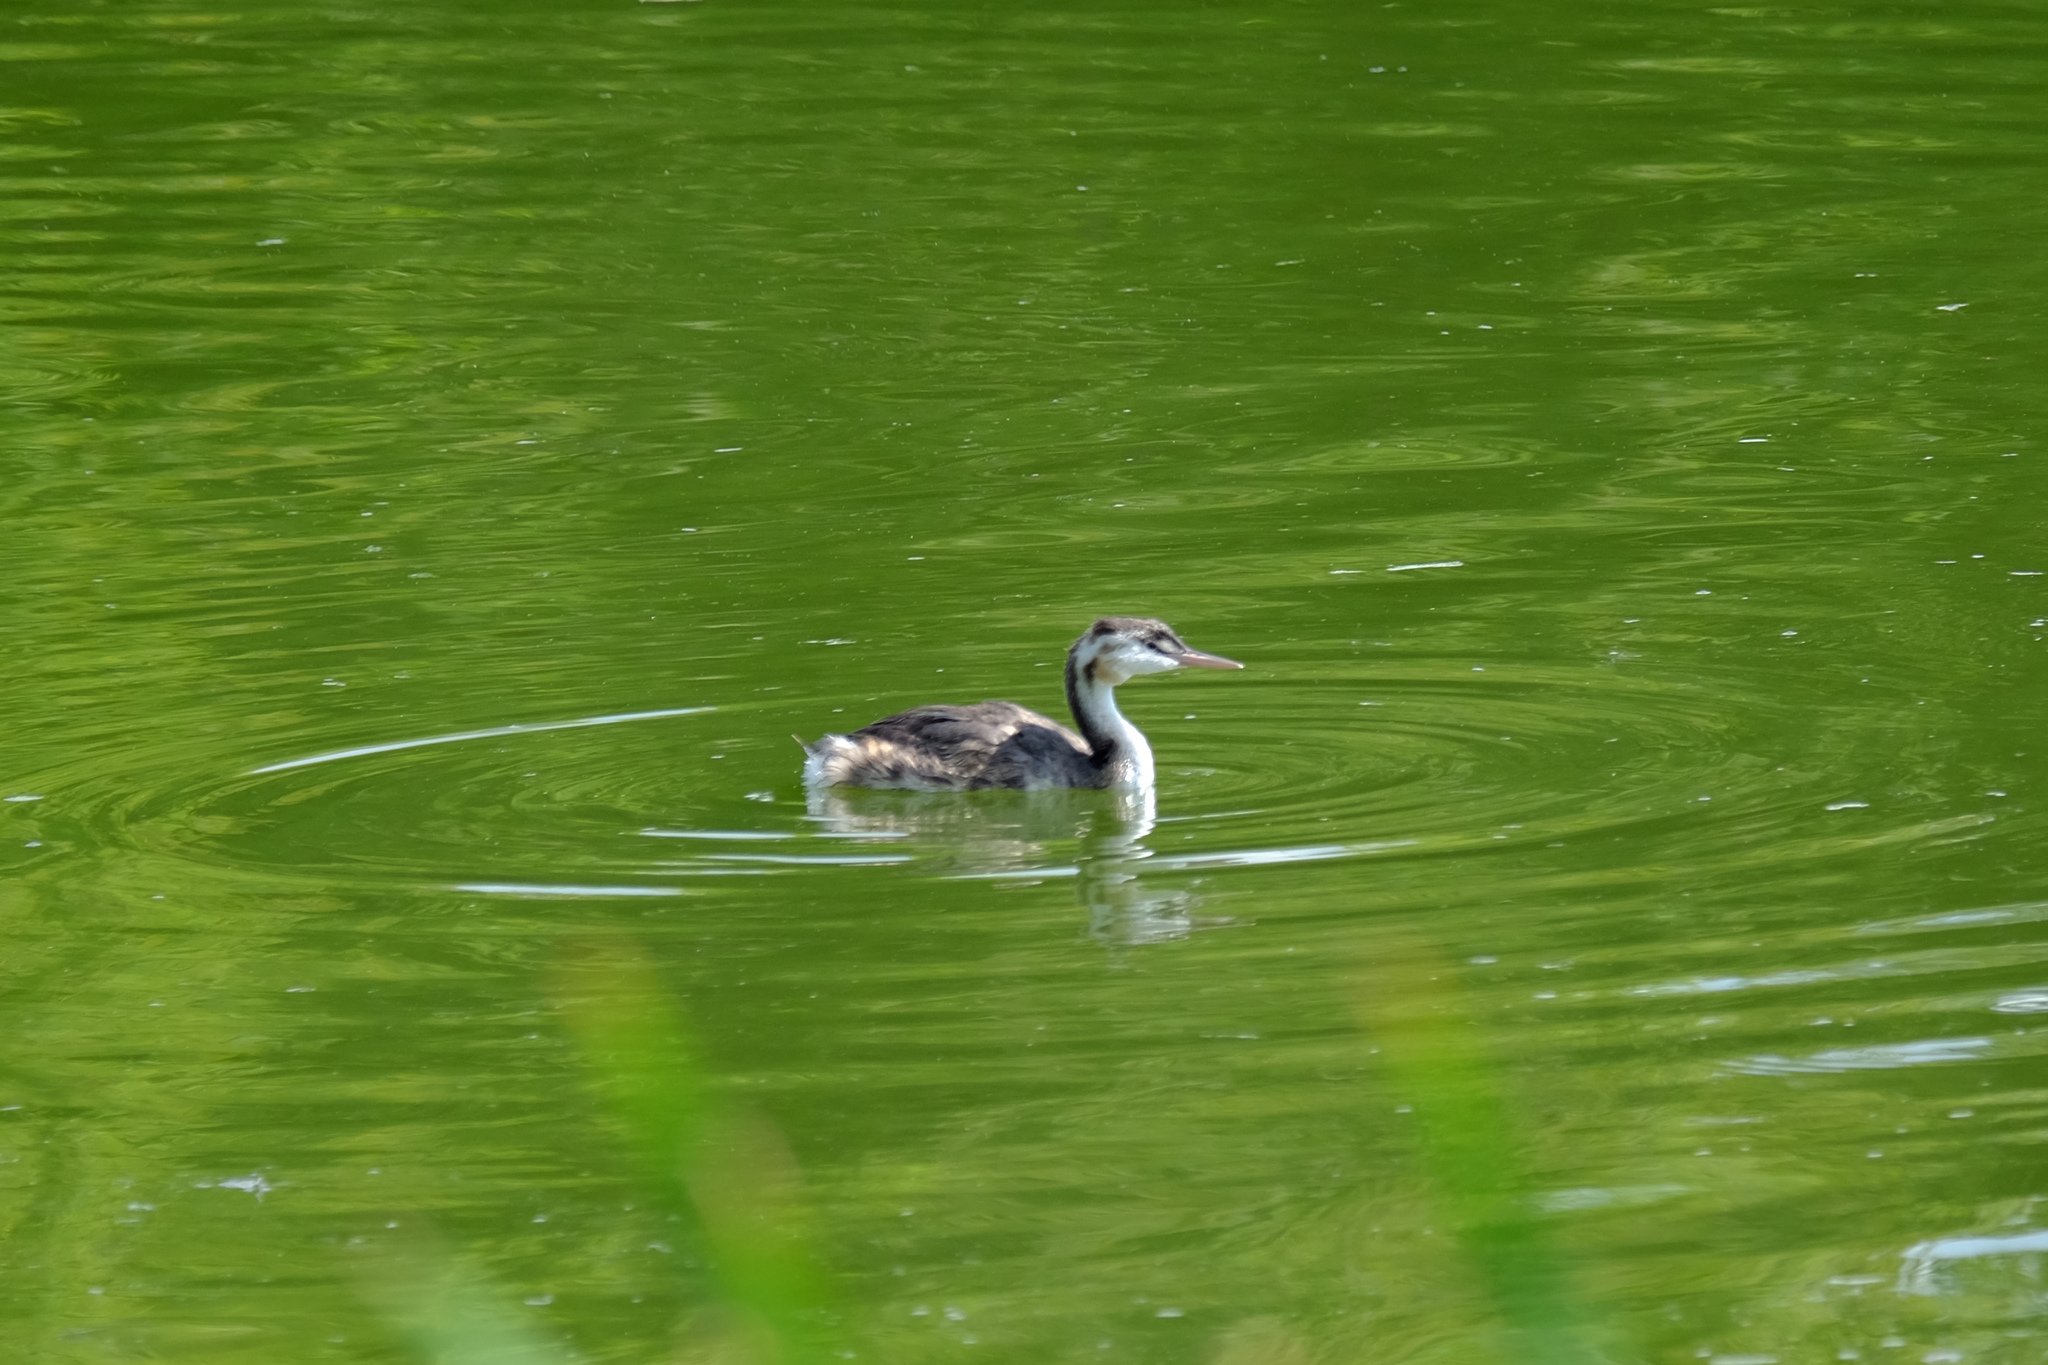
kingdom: Animalia
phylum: Chordata
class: Aves
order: Podicipediformes
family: Podicipedidae
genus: Podiceps
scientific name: Podiceps cristatus
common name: Great crested grebe
